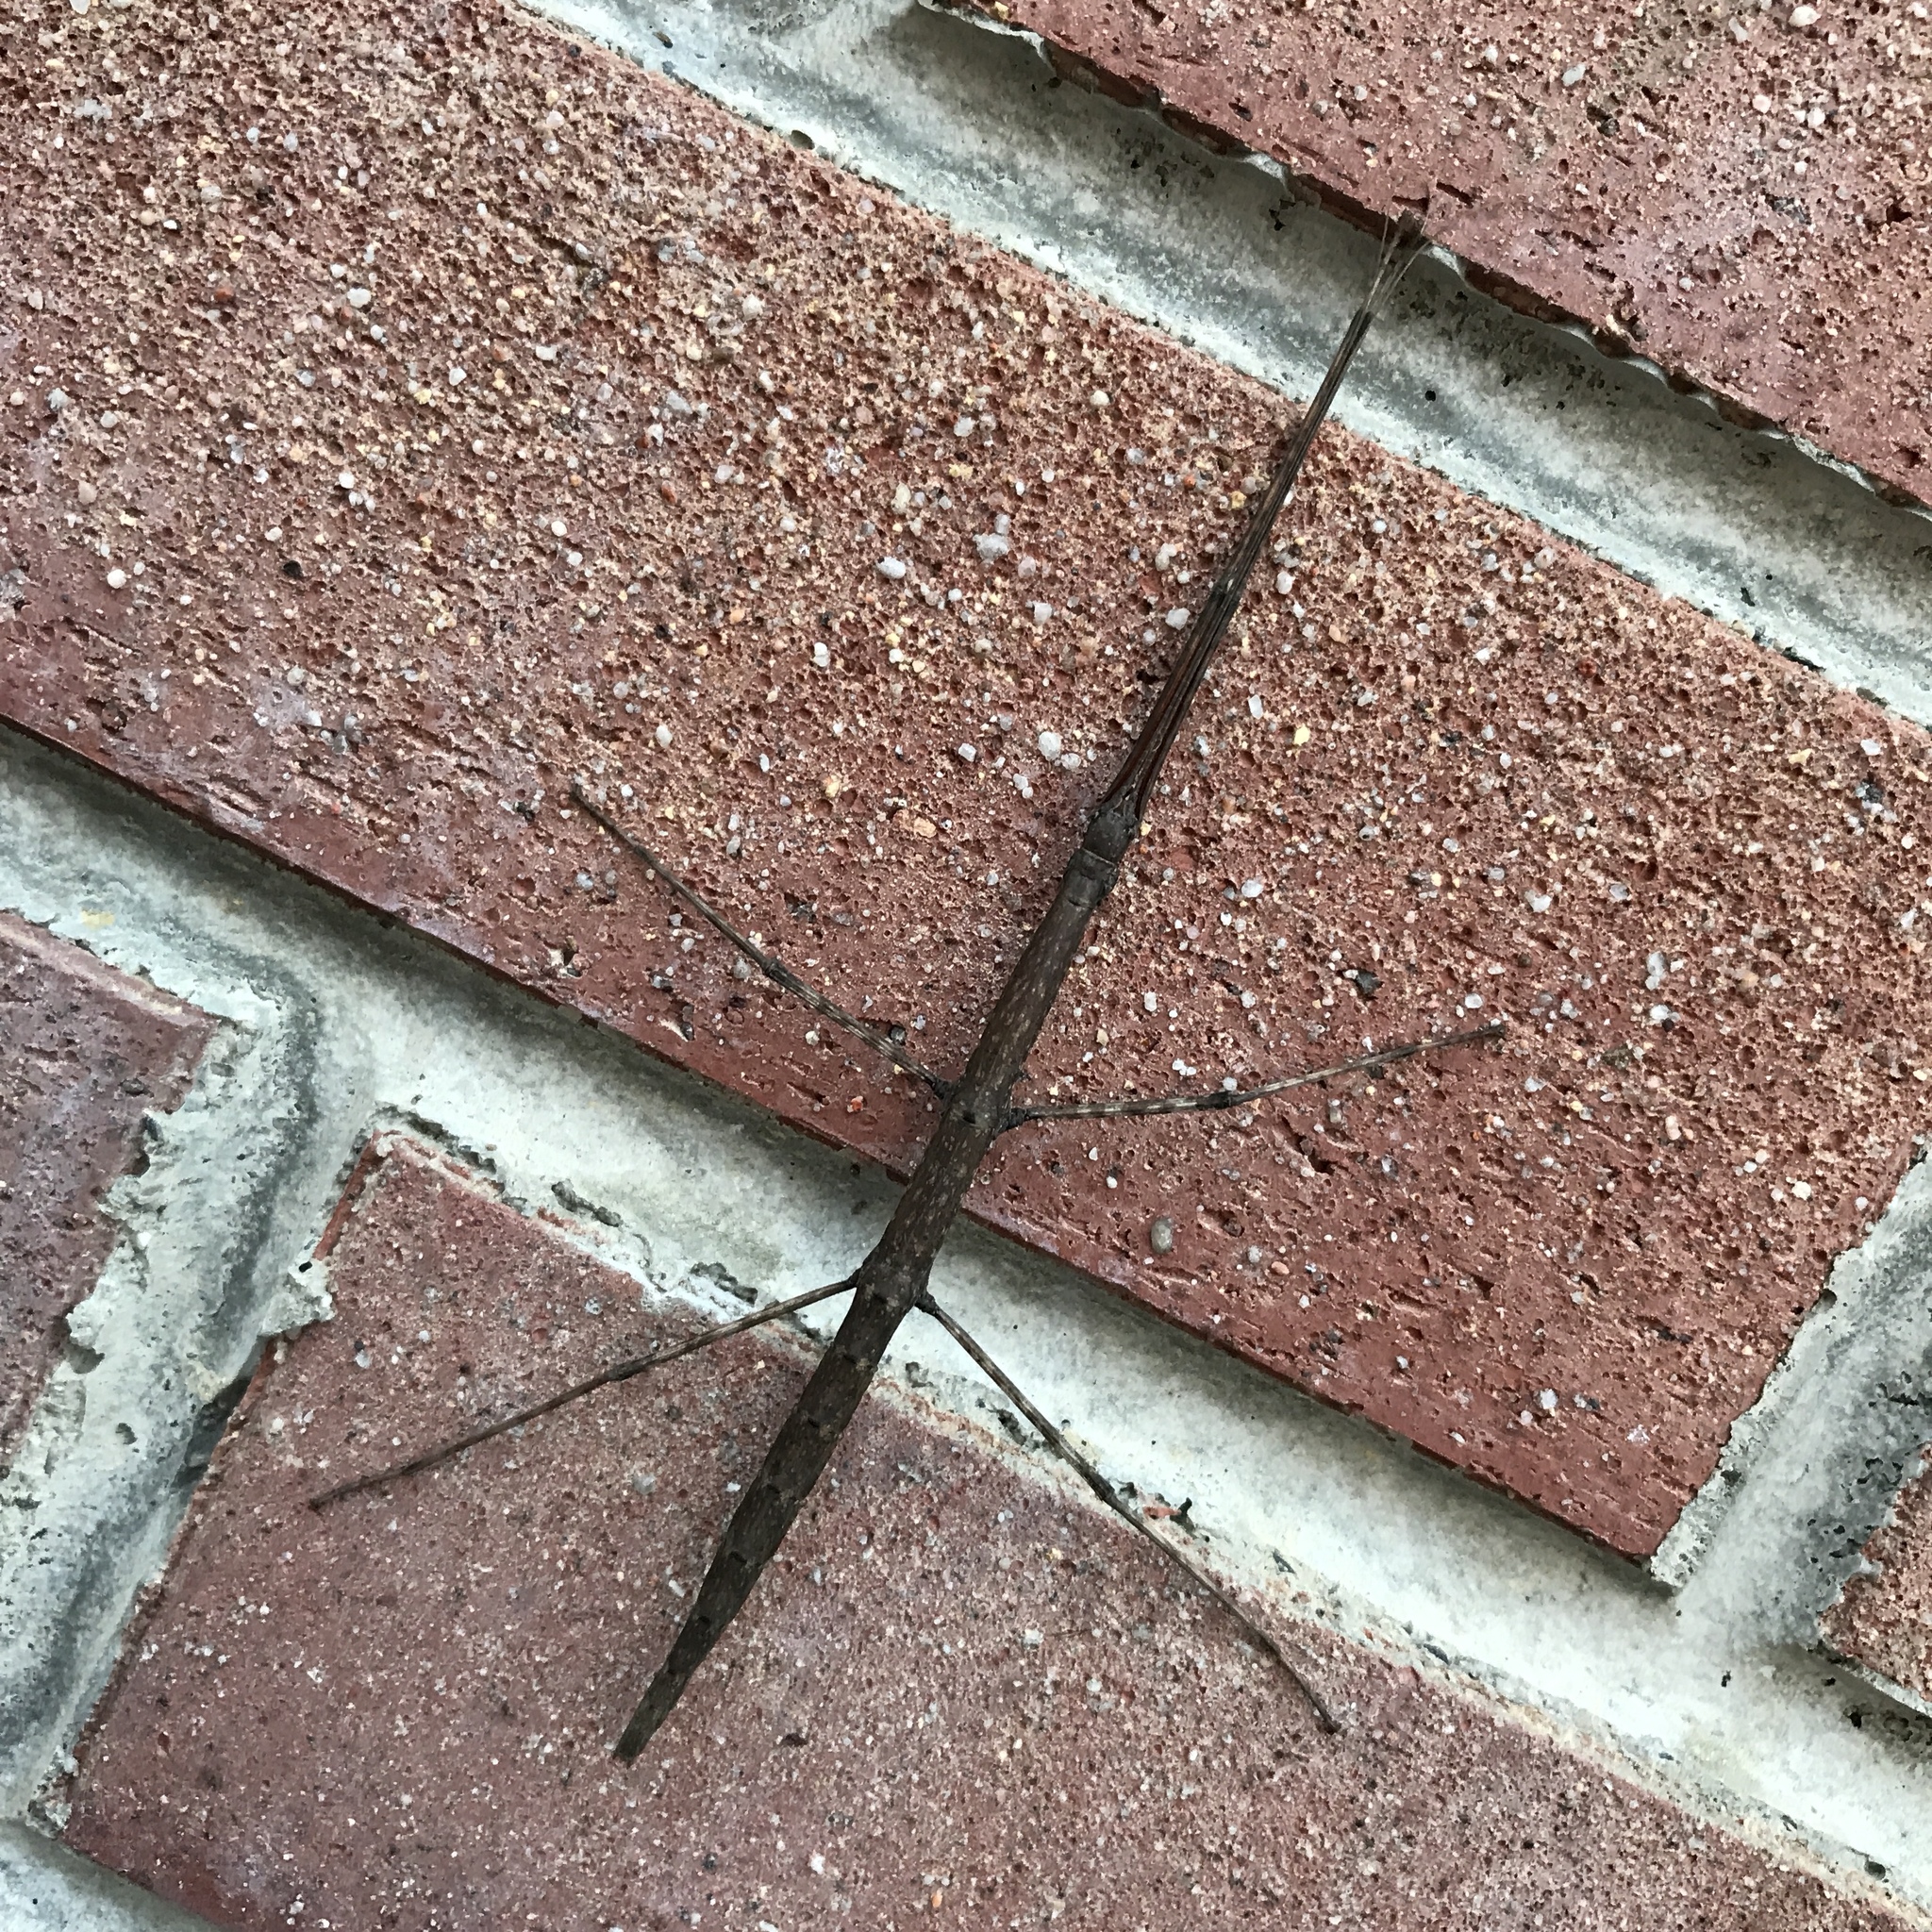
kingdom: Animalia
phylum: Arthropoda
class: Insecta
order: Phasmida
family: Diapheromeridae
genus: Diapheromera
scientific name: Diapheromera femorata
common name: Common american walkingstick
